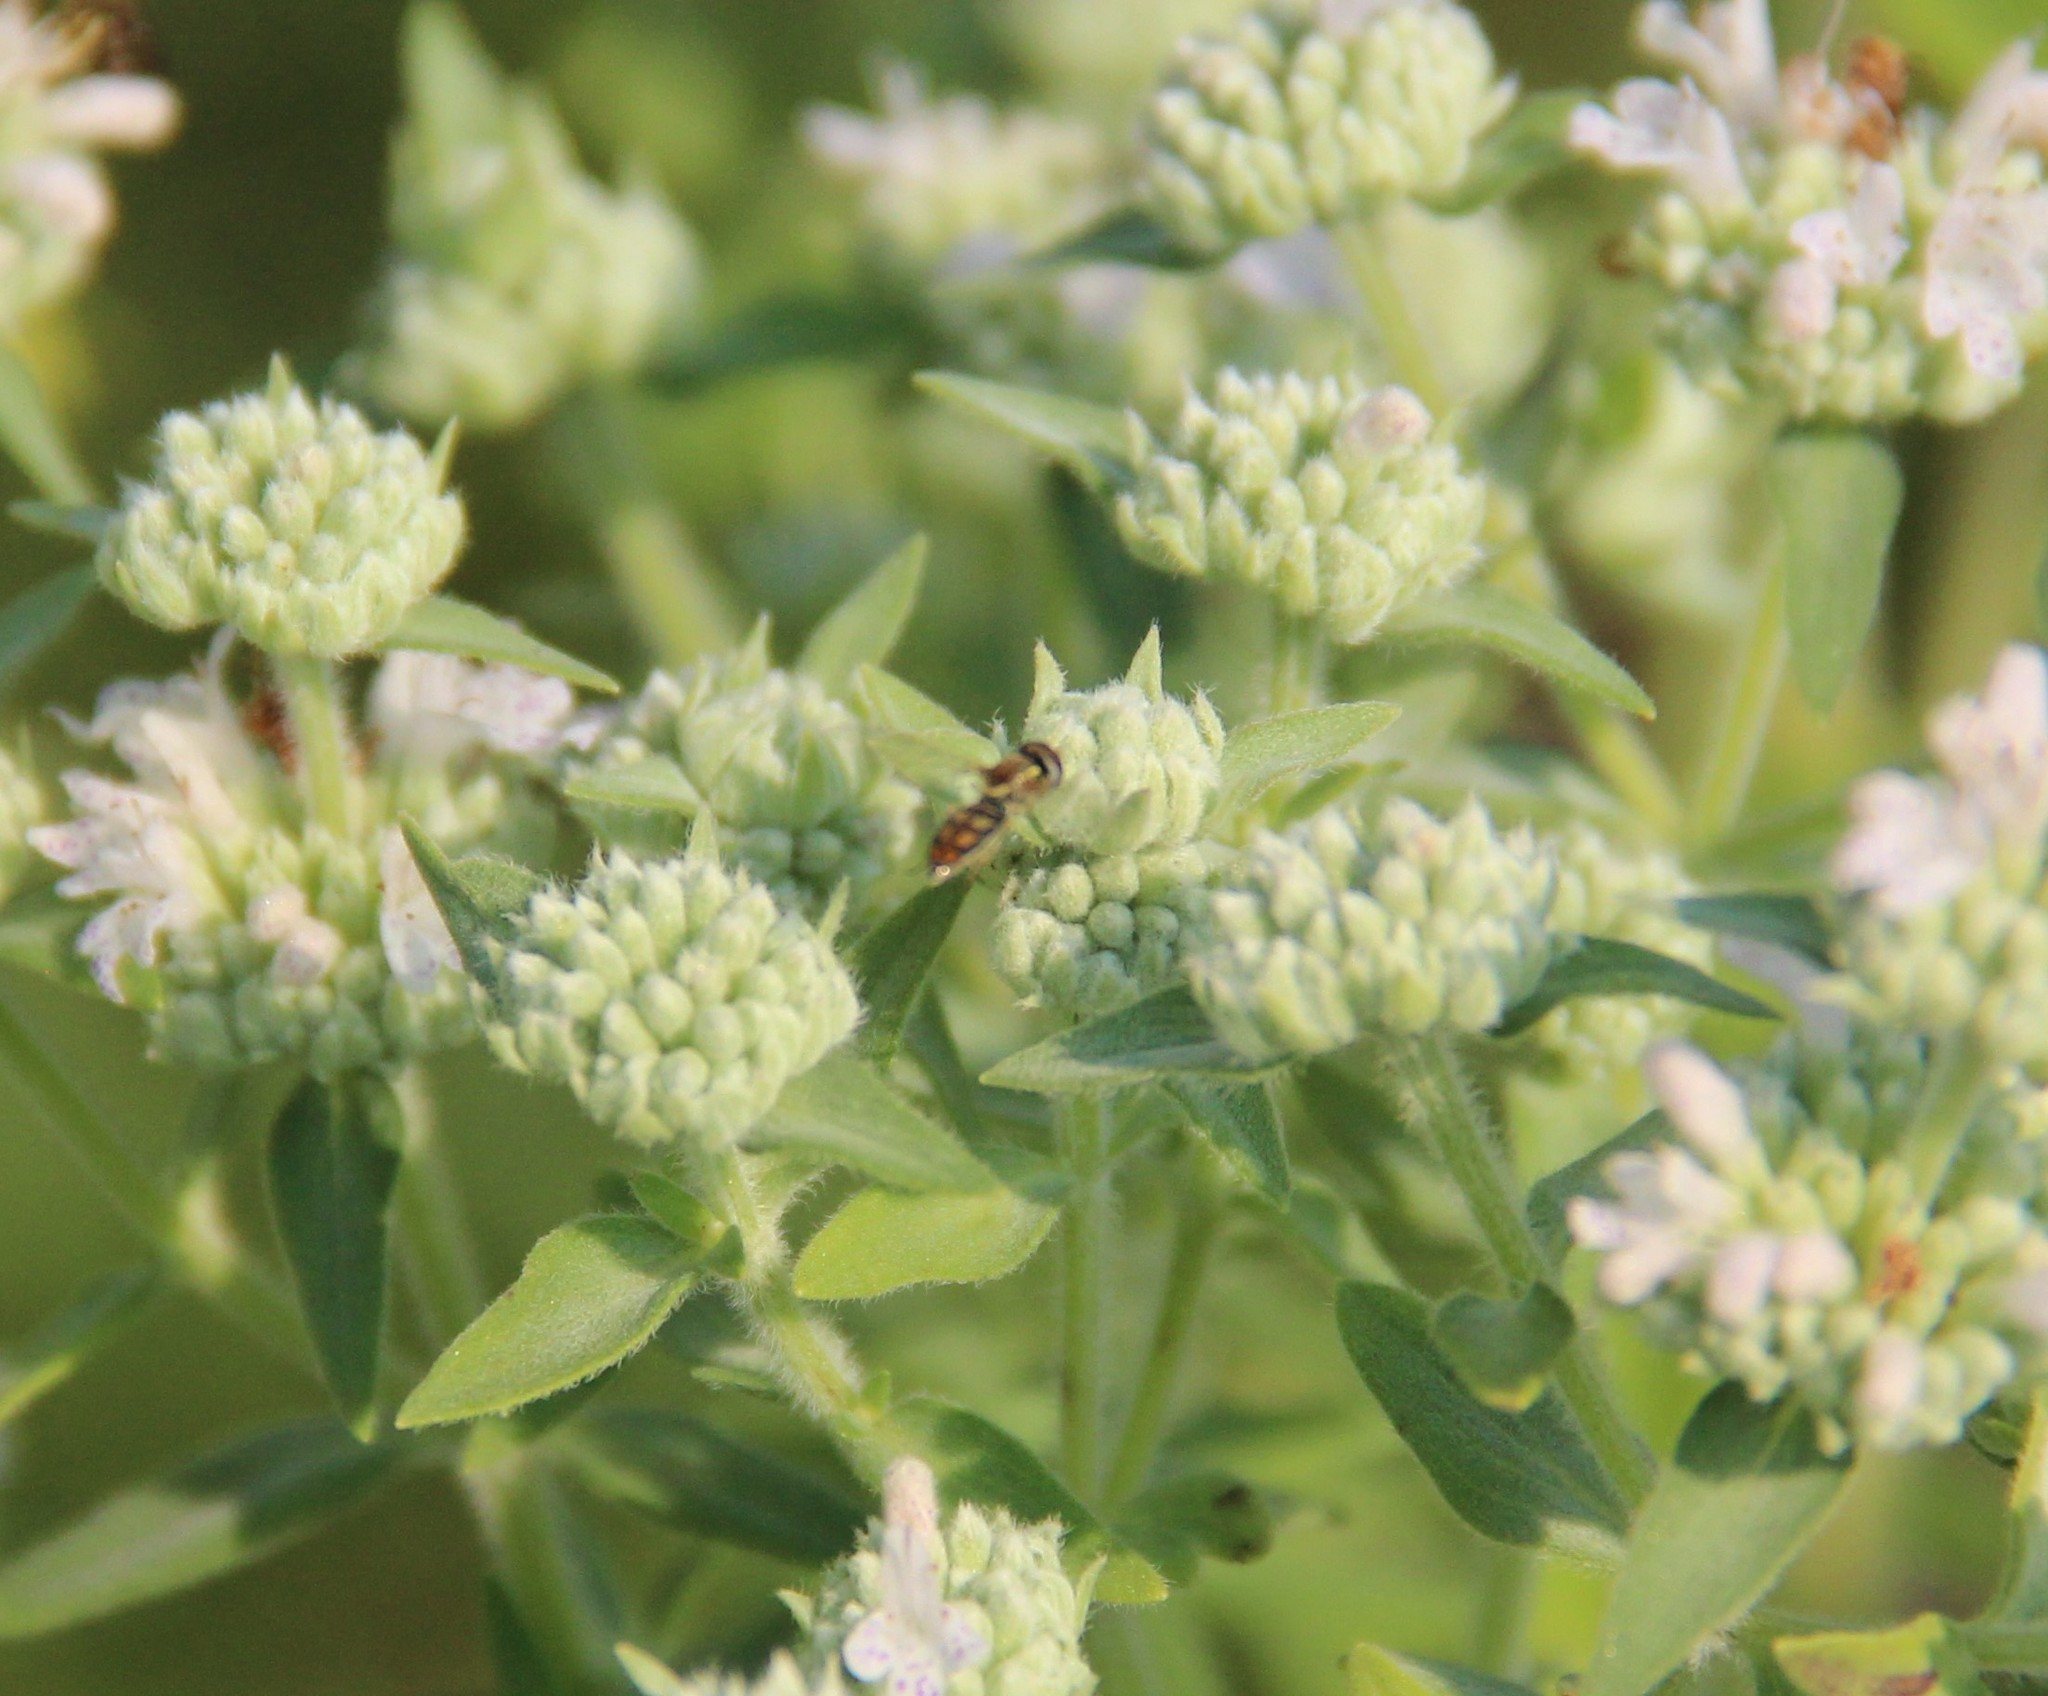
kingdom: Animalia
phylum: Arthropoda
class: Insecta
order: Diptera
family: Syrphidae
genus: Toxomerus
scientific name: Toxomerus marginatus
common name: Syrphid fly
